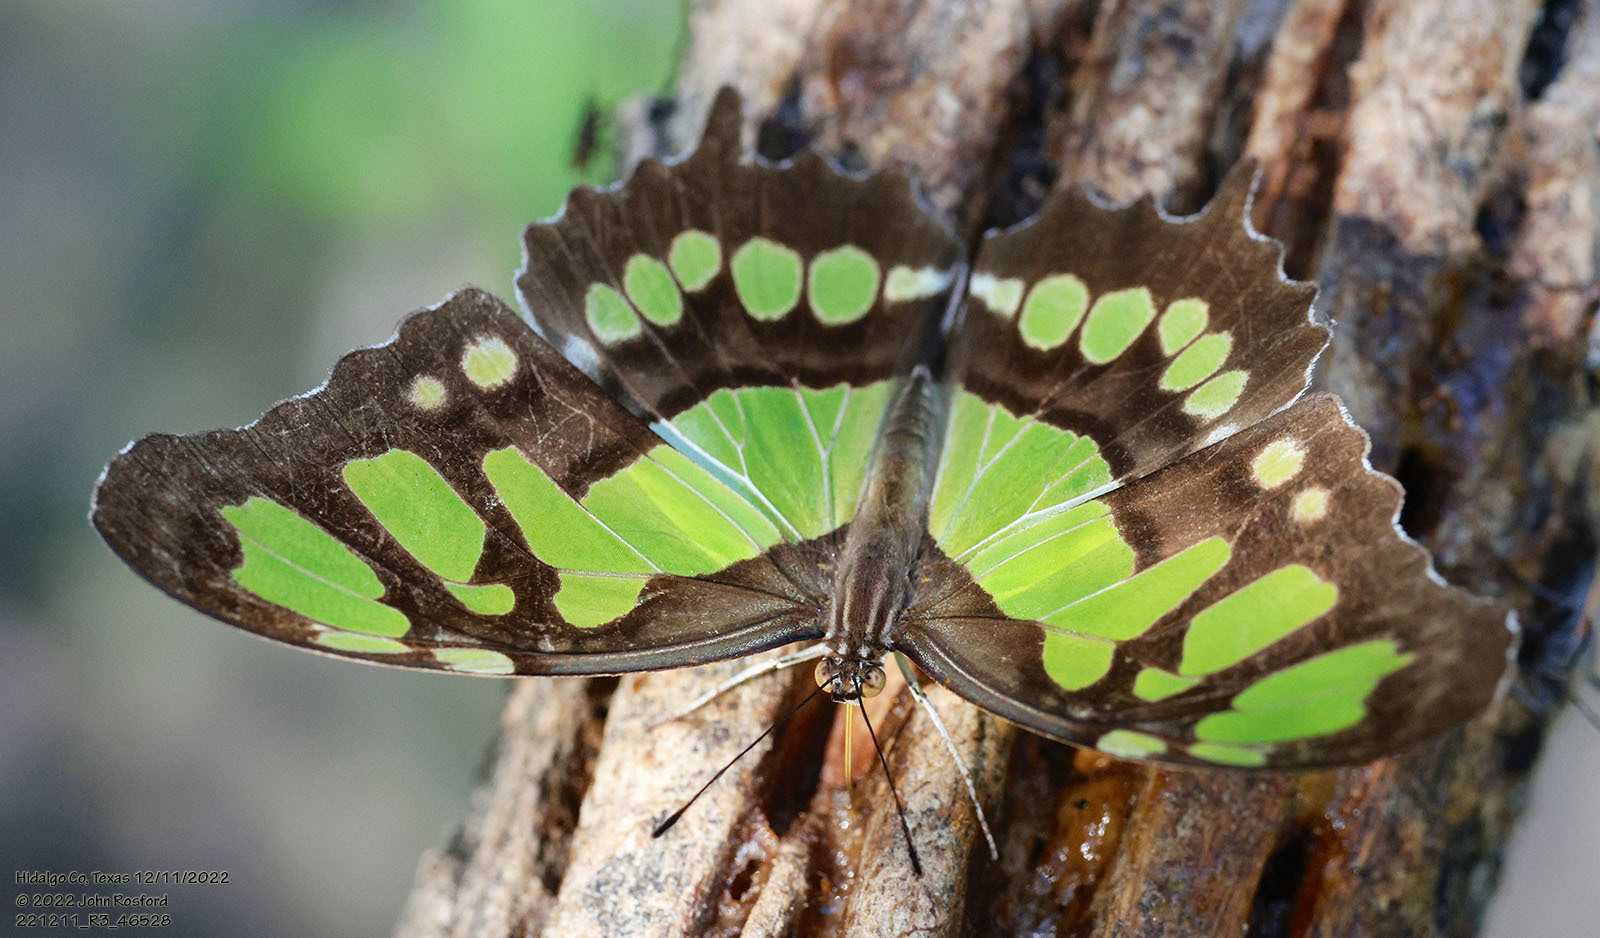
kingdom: Animalia
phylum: Arthropoda
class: Insecta
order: Lepidoptera
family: Nymphalidae
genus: Siproeta
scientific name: Siproeta stelenes
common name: Malachite
